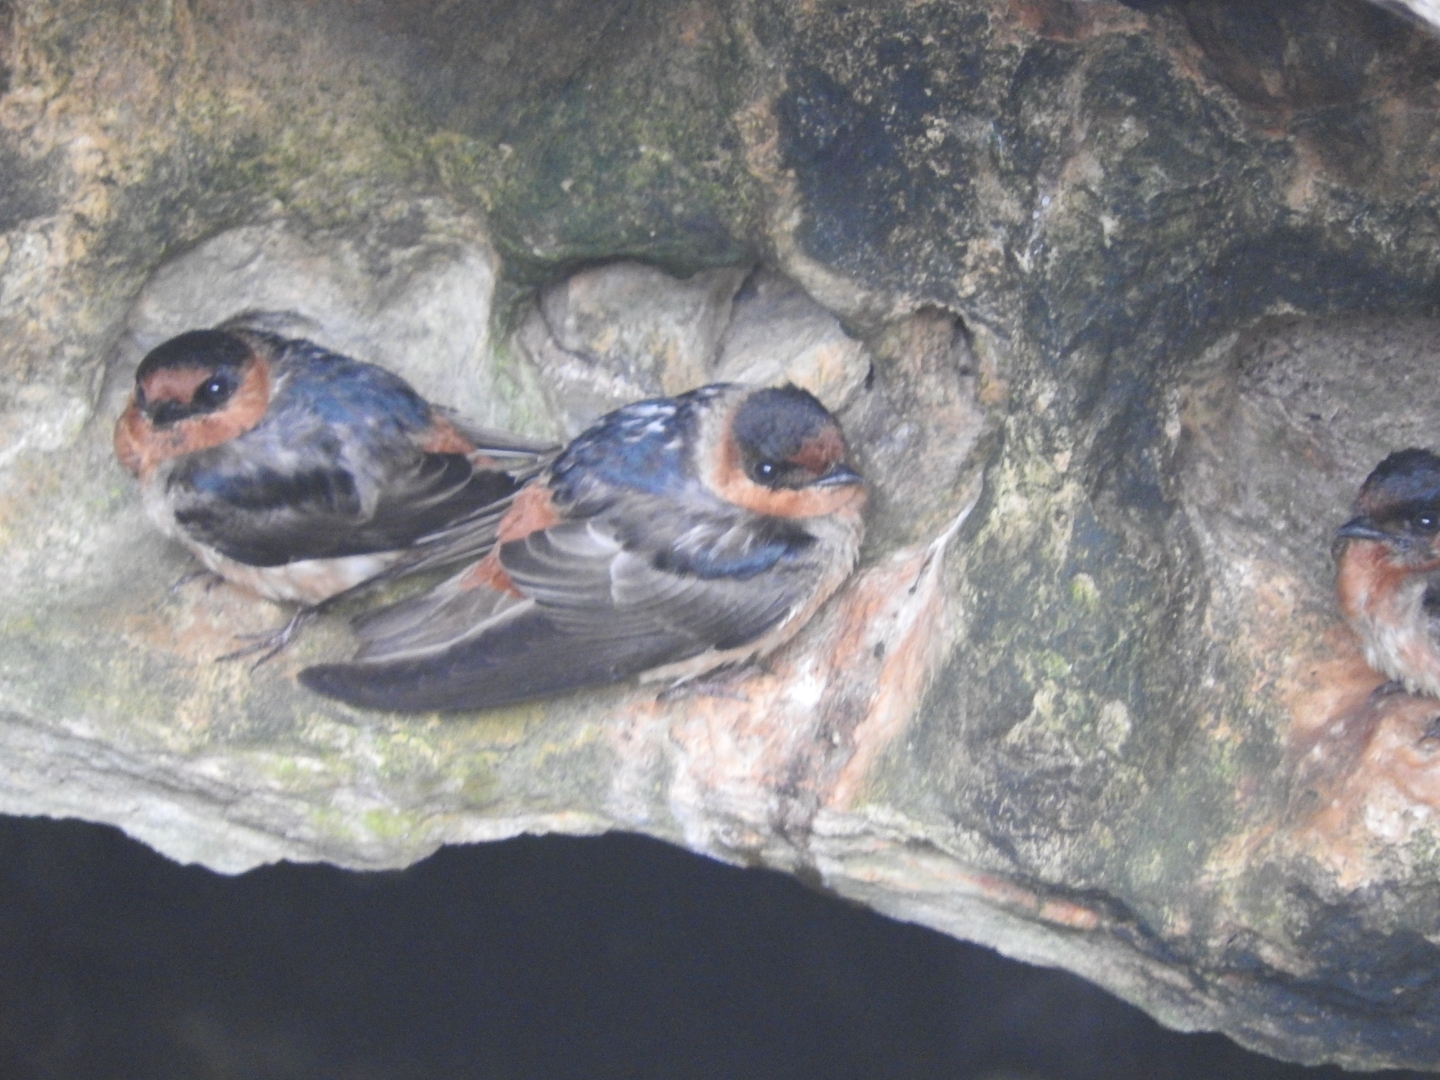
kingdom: Animalia
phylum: Chordata
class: Aves
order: Passeriformes
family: Hirundinidae
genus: Petrochelidon
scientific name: Petrochelidon fulva
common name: Cave swallow
